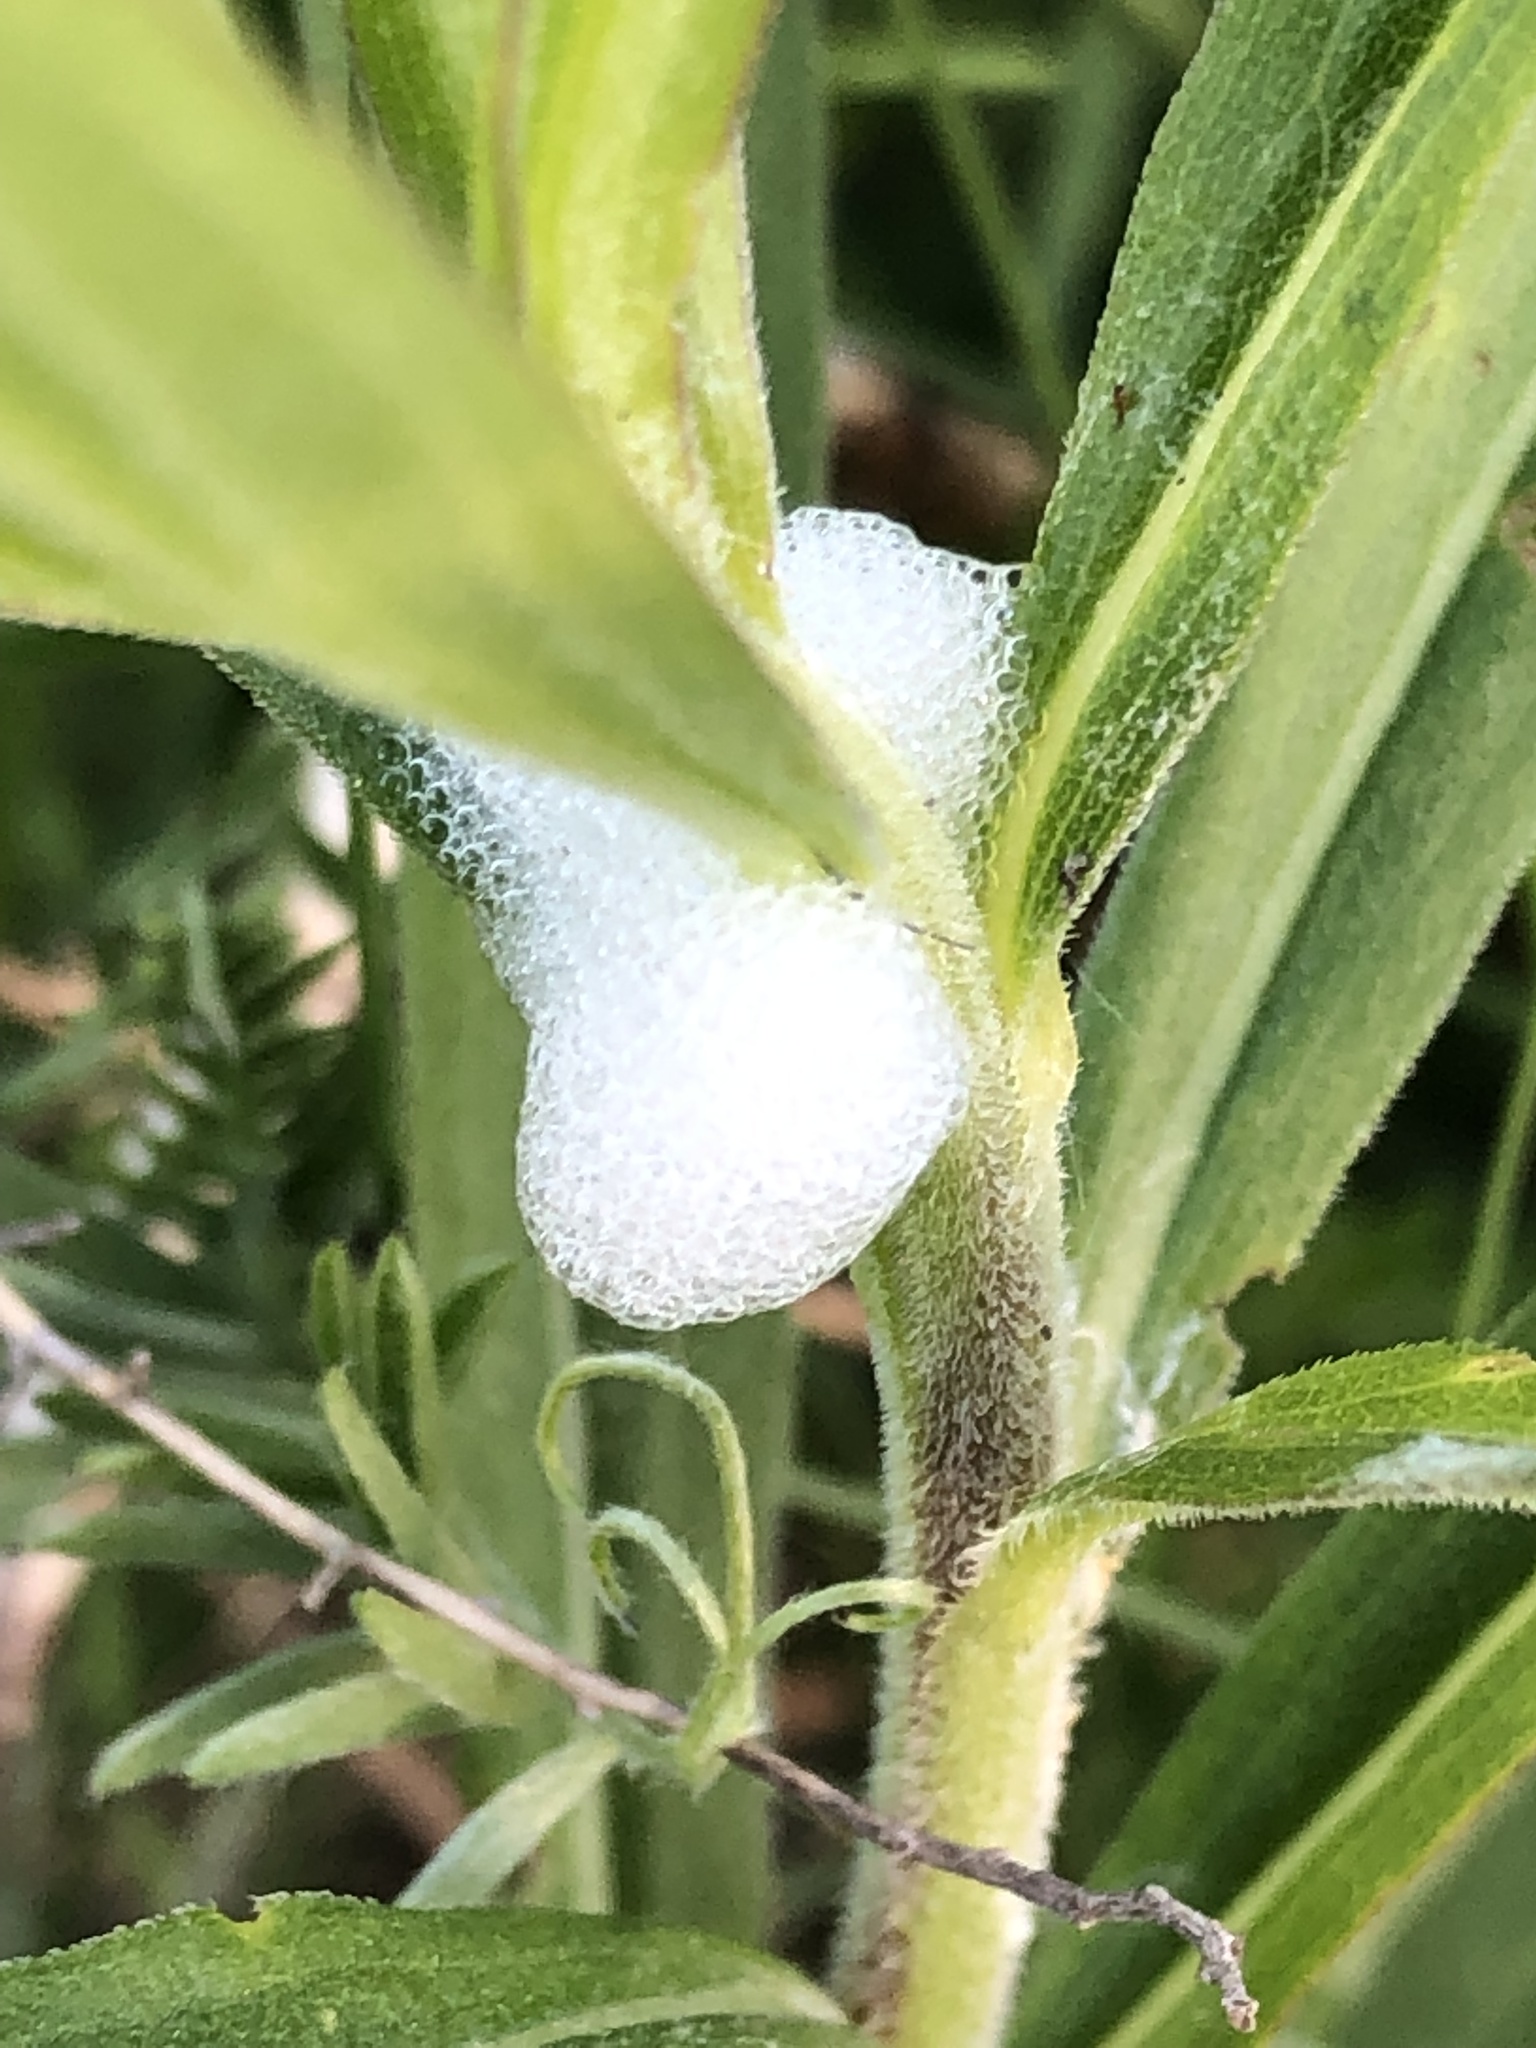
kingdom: Animalia
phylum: Arthropoda
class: Insecta
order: Hemiptera
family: Aphrophoridae
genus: Philaenus
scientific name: Philaenus spumarius
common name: Meadow spittlebug
